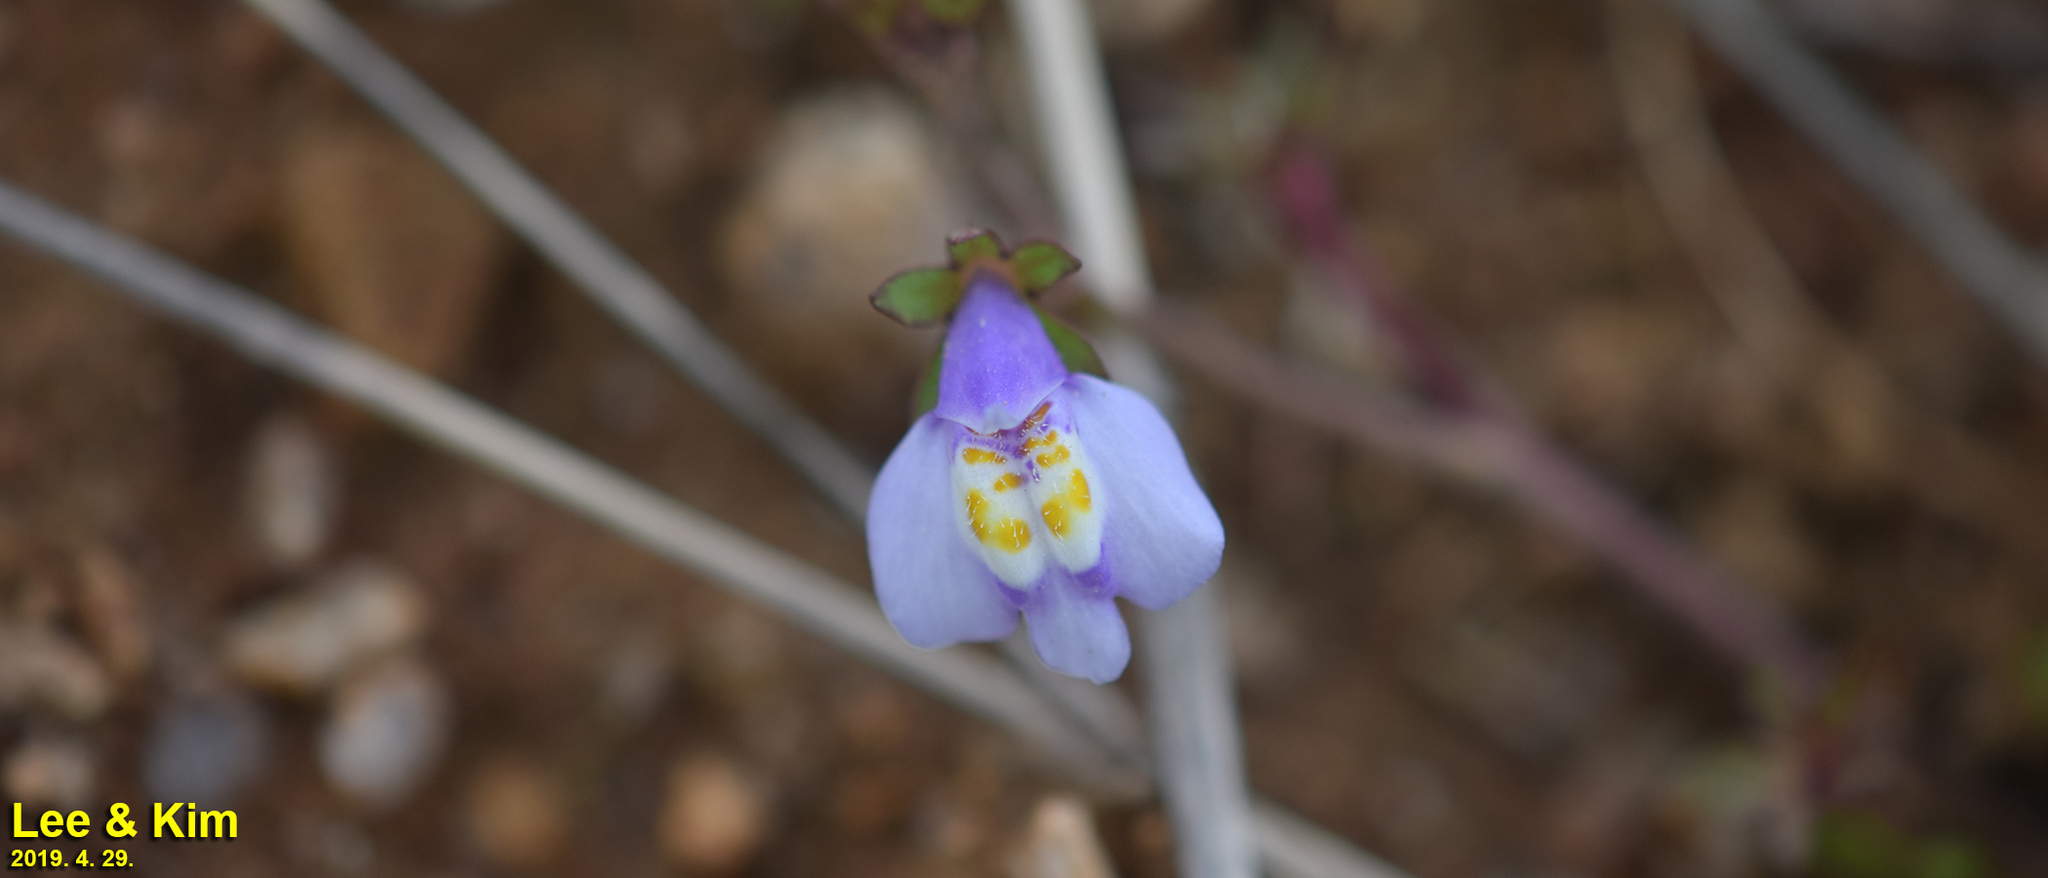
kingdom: Plantae
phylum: Tracheophyta
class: Magnoliopsida
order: Lamiales
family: Mazaceae
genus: Mazus
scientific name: Mazus pumilus
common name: Japanese mazus
